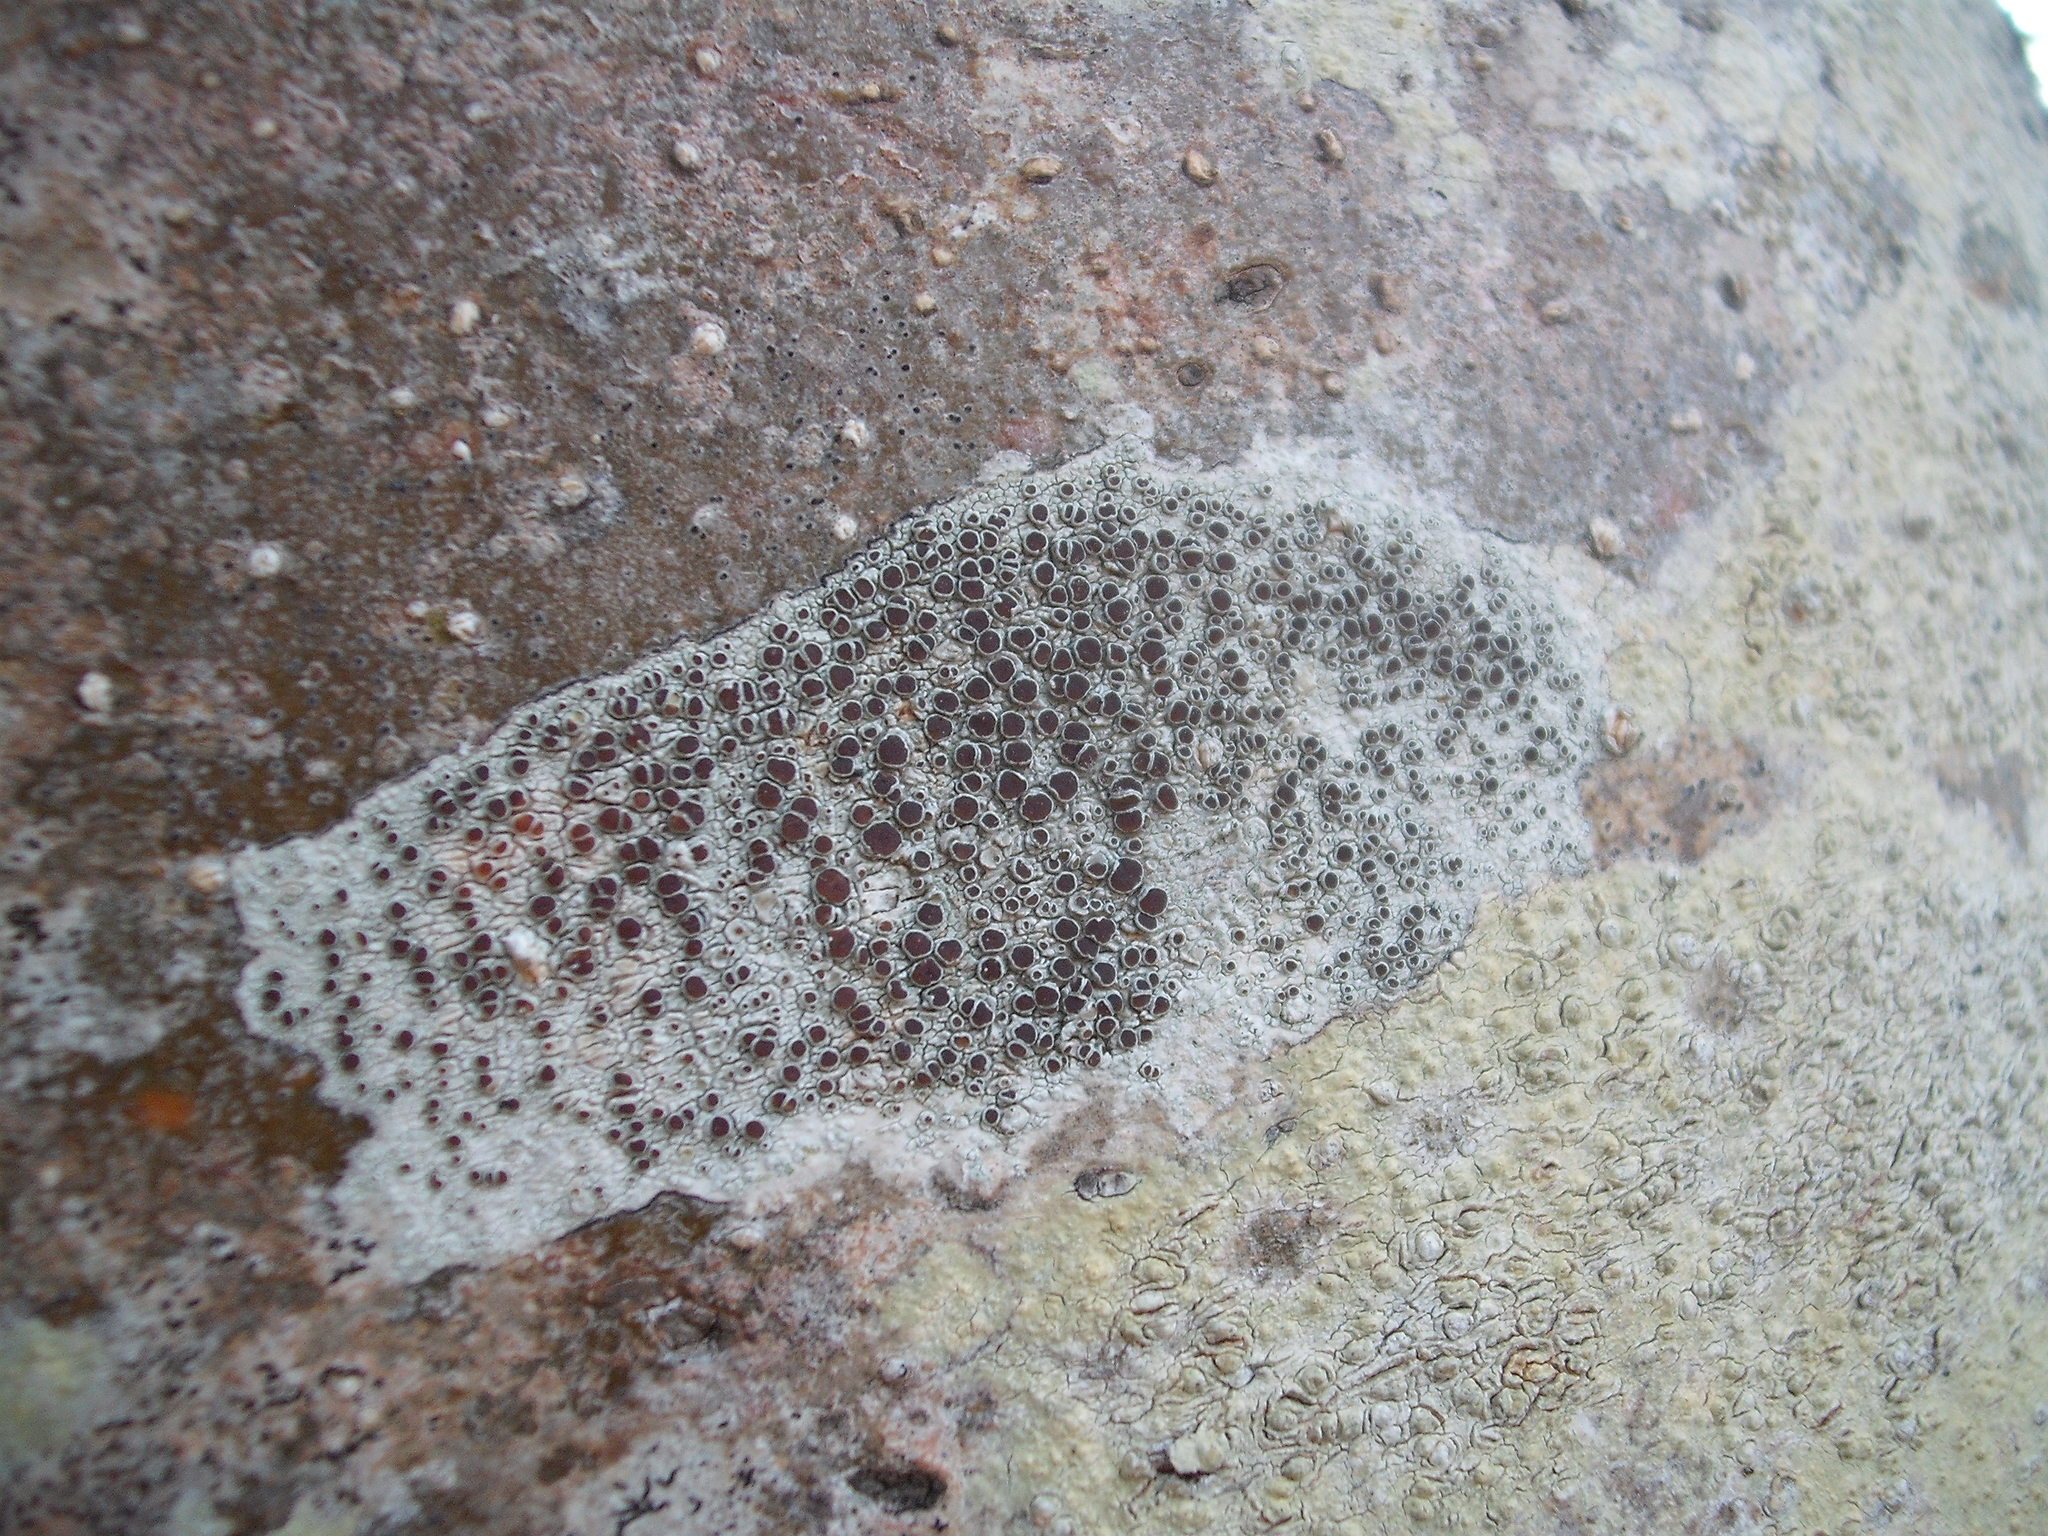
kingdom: Fungi
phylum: Ascomycota
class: Lecanoromycetes
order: Lecanorales
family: Lecanoraceae
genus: Lecanora
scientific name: Lecanora argentata
